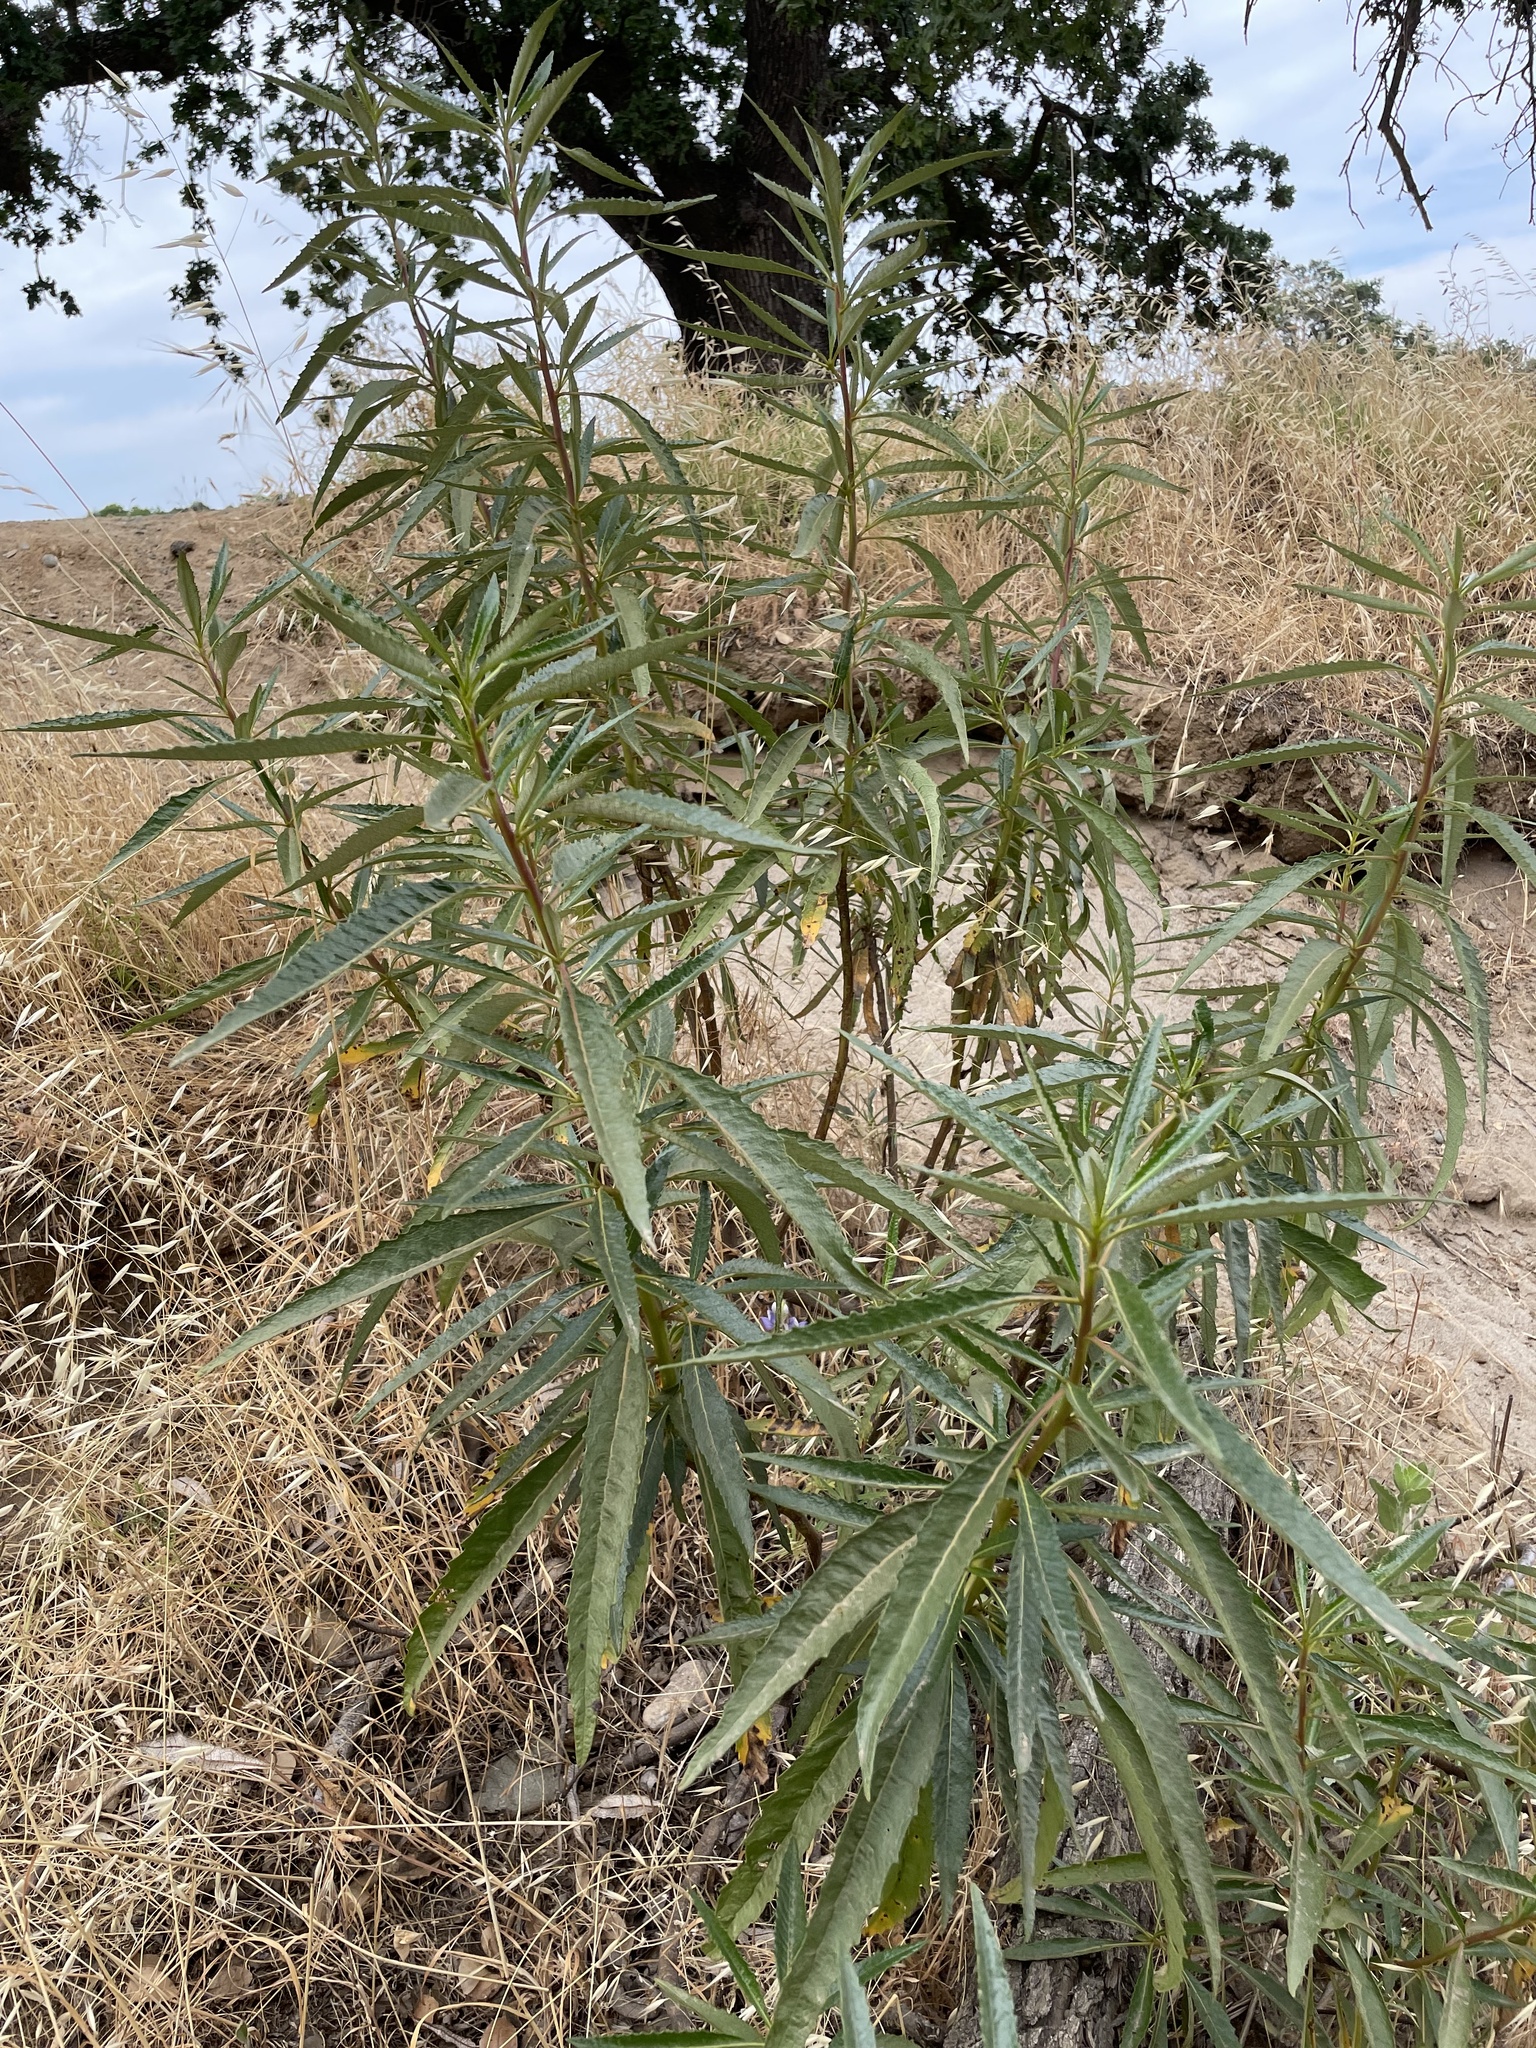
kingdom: Plantae
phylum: Tracheophyta
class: Magnoliopsida
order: Boraginales
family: Namaceae
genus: Eriodictyon
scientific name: Eriodictyon californicum
